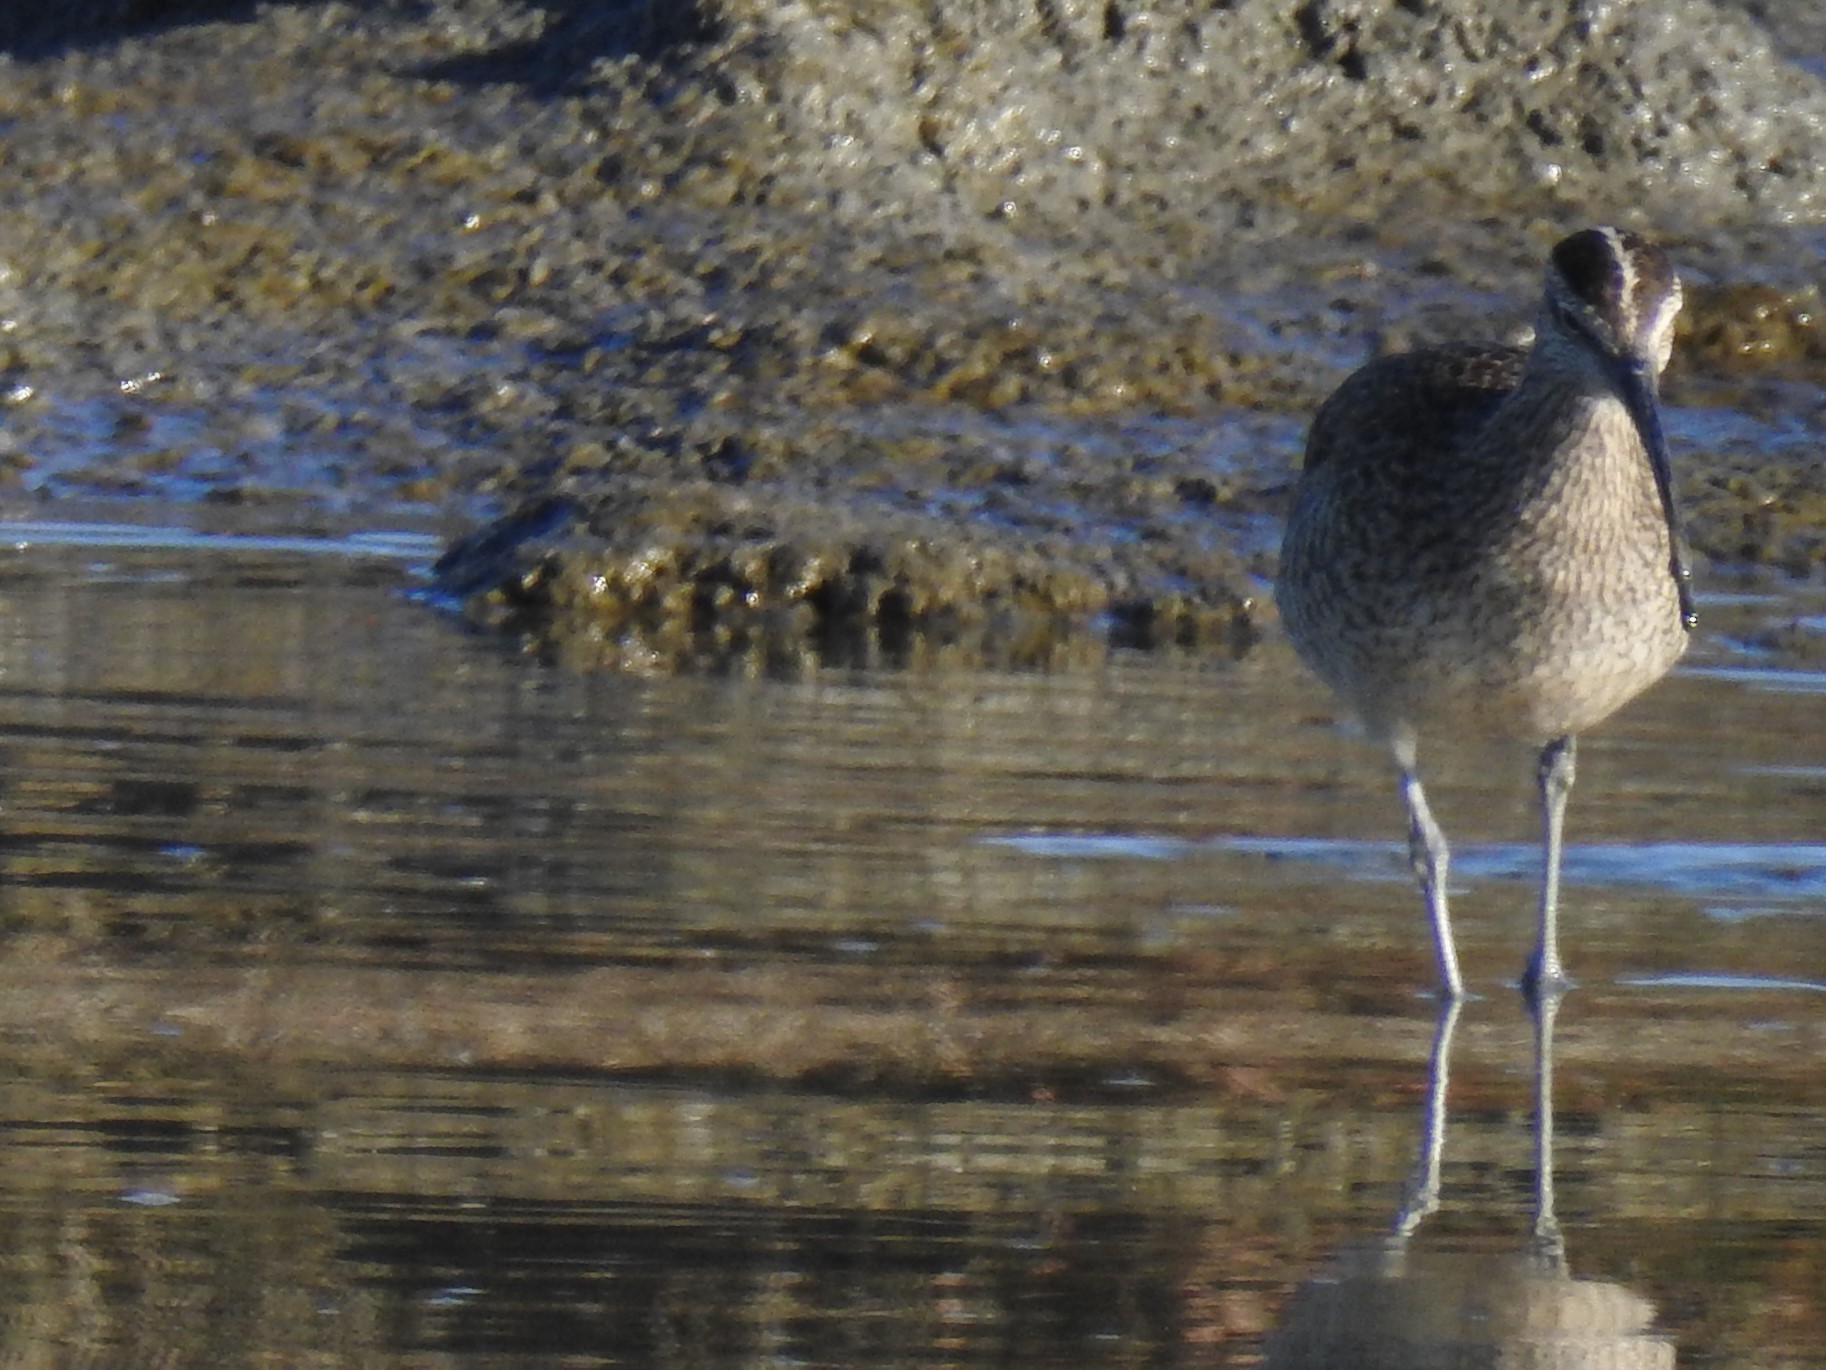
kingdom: Animalia
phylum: Chordata
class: Aves
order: Charadriiformes
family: Scolopacidae
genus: Numenius
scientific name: Numenius phaeopus
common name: Whimbrel
